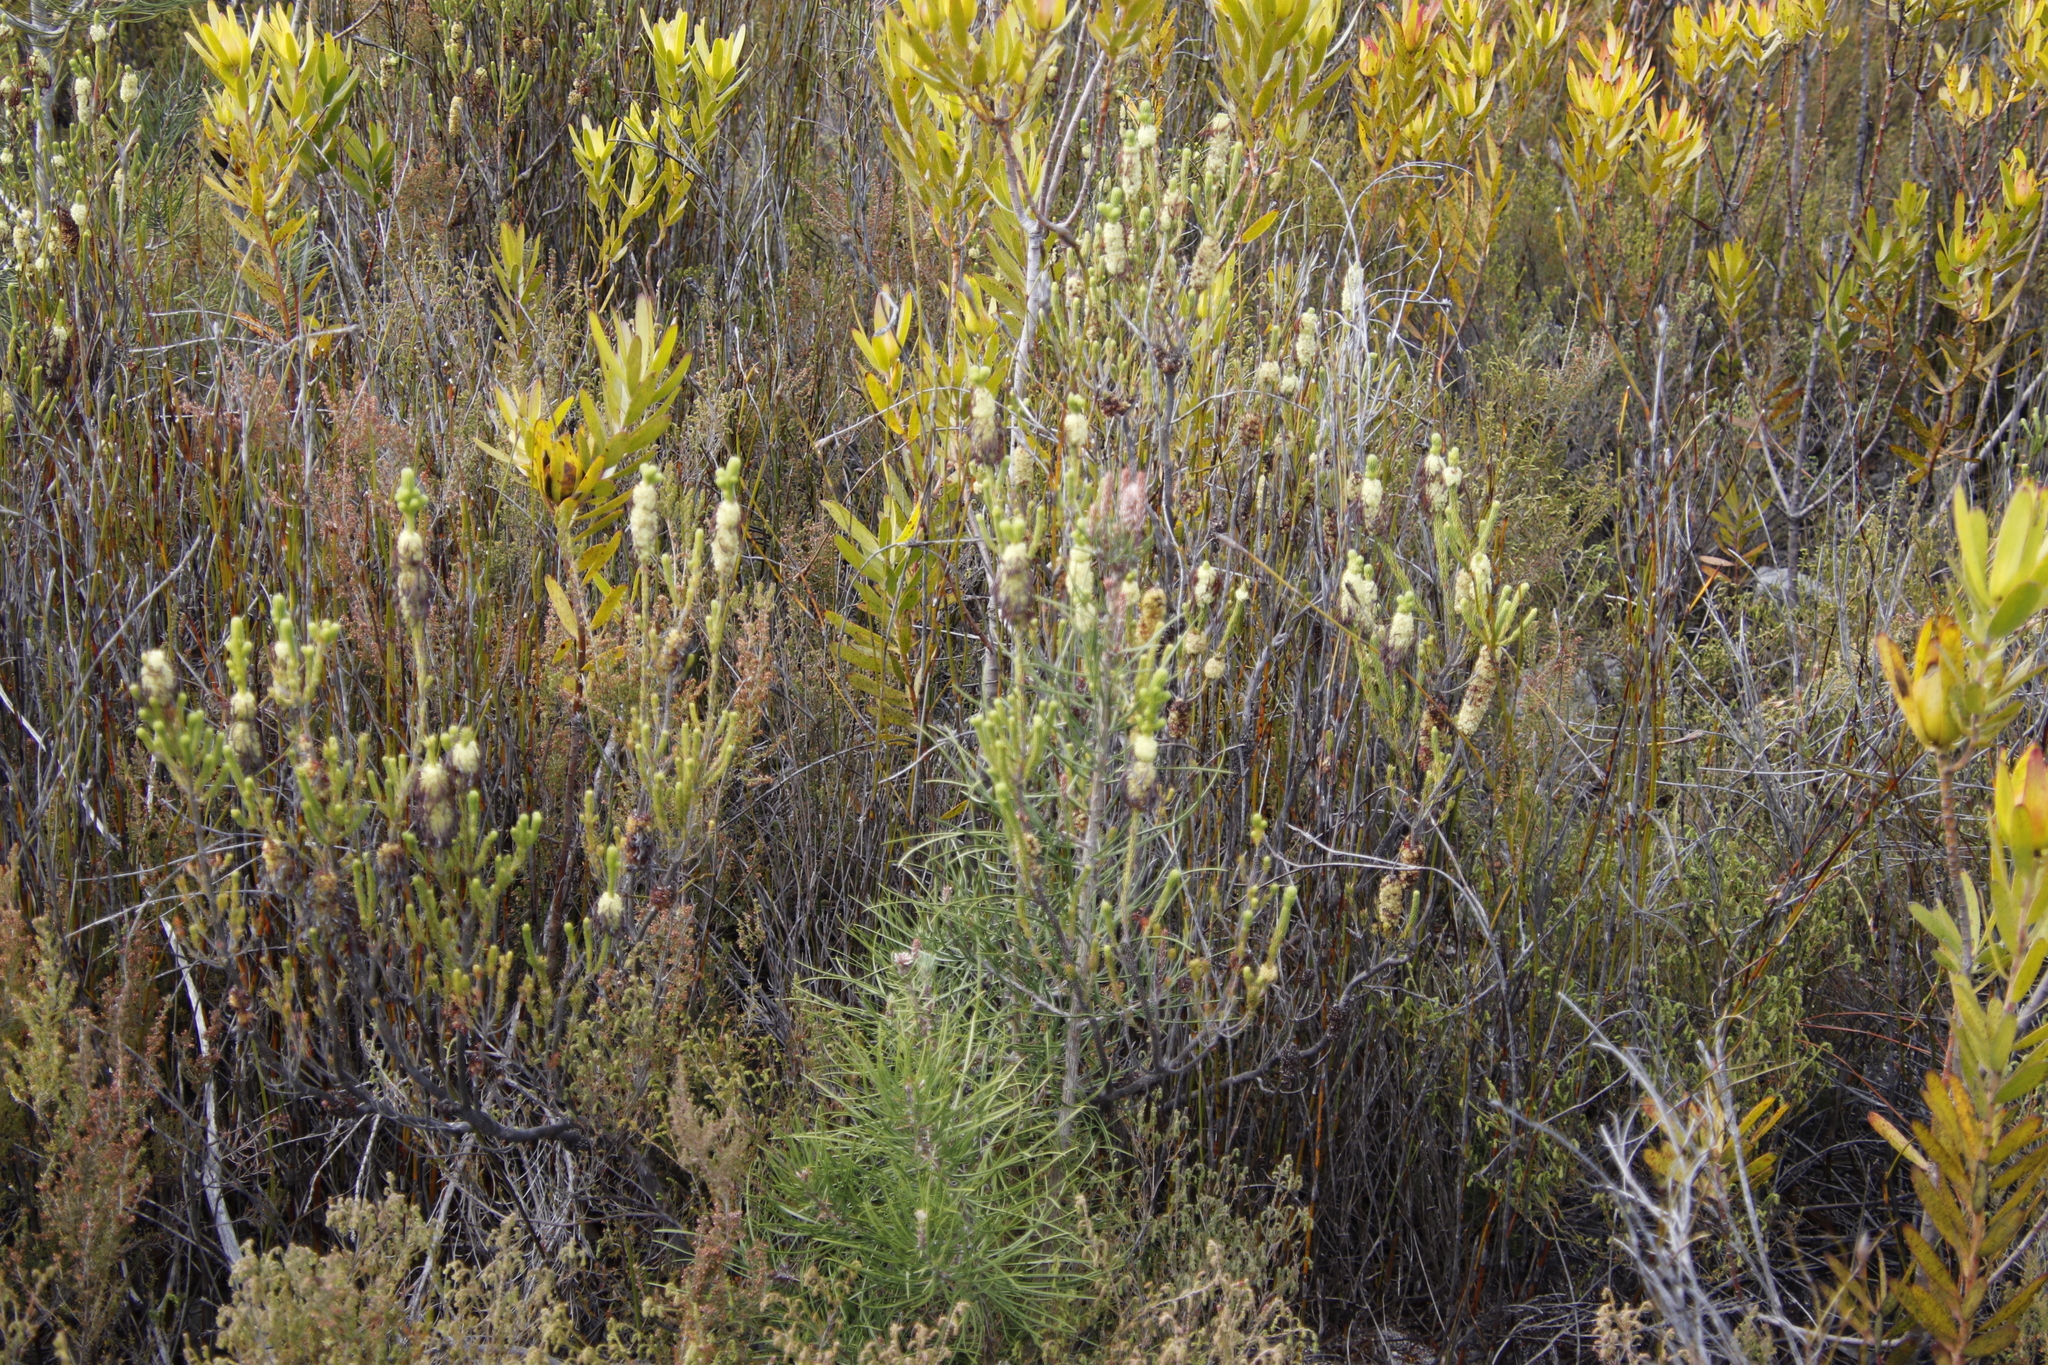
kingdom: Plantae
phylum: Tracheophyta
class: Magnoliopsida
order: Ericales
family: Ericaceae
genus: Erica
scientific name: Erica sessiliflora
